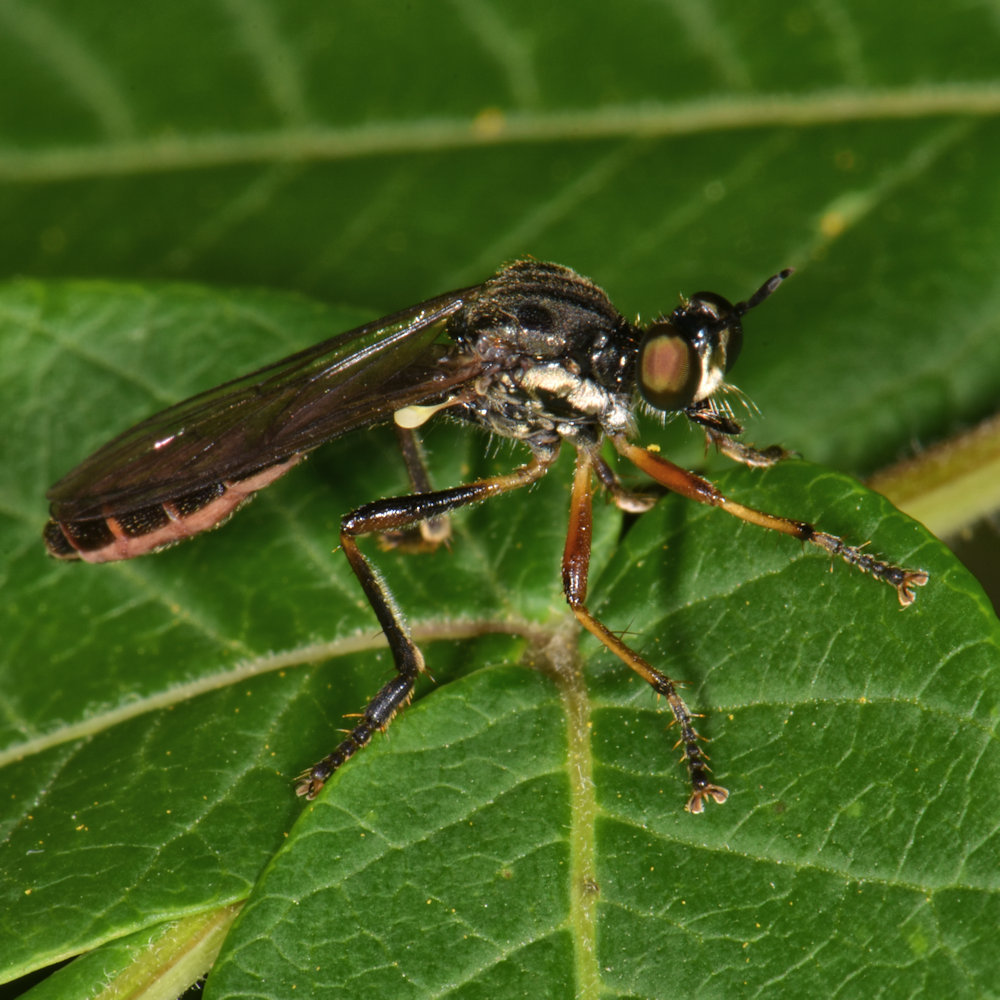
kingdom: Animalia
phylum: Arthropoda
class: Insecta
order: Diptera
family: Asilidae
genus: Dioctria
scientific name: Dioctria hyalipennis
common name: Stripe-legged robberfly
